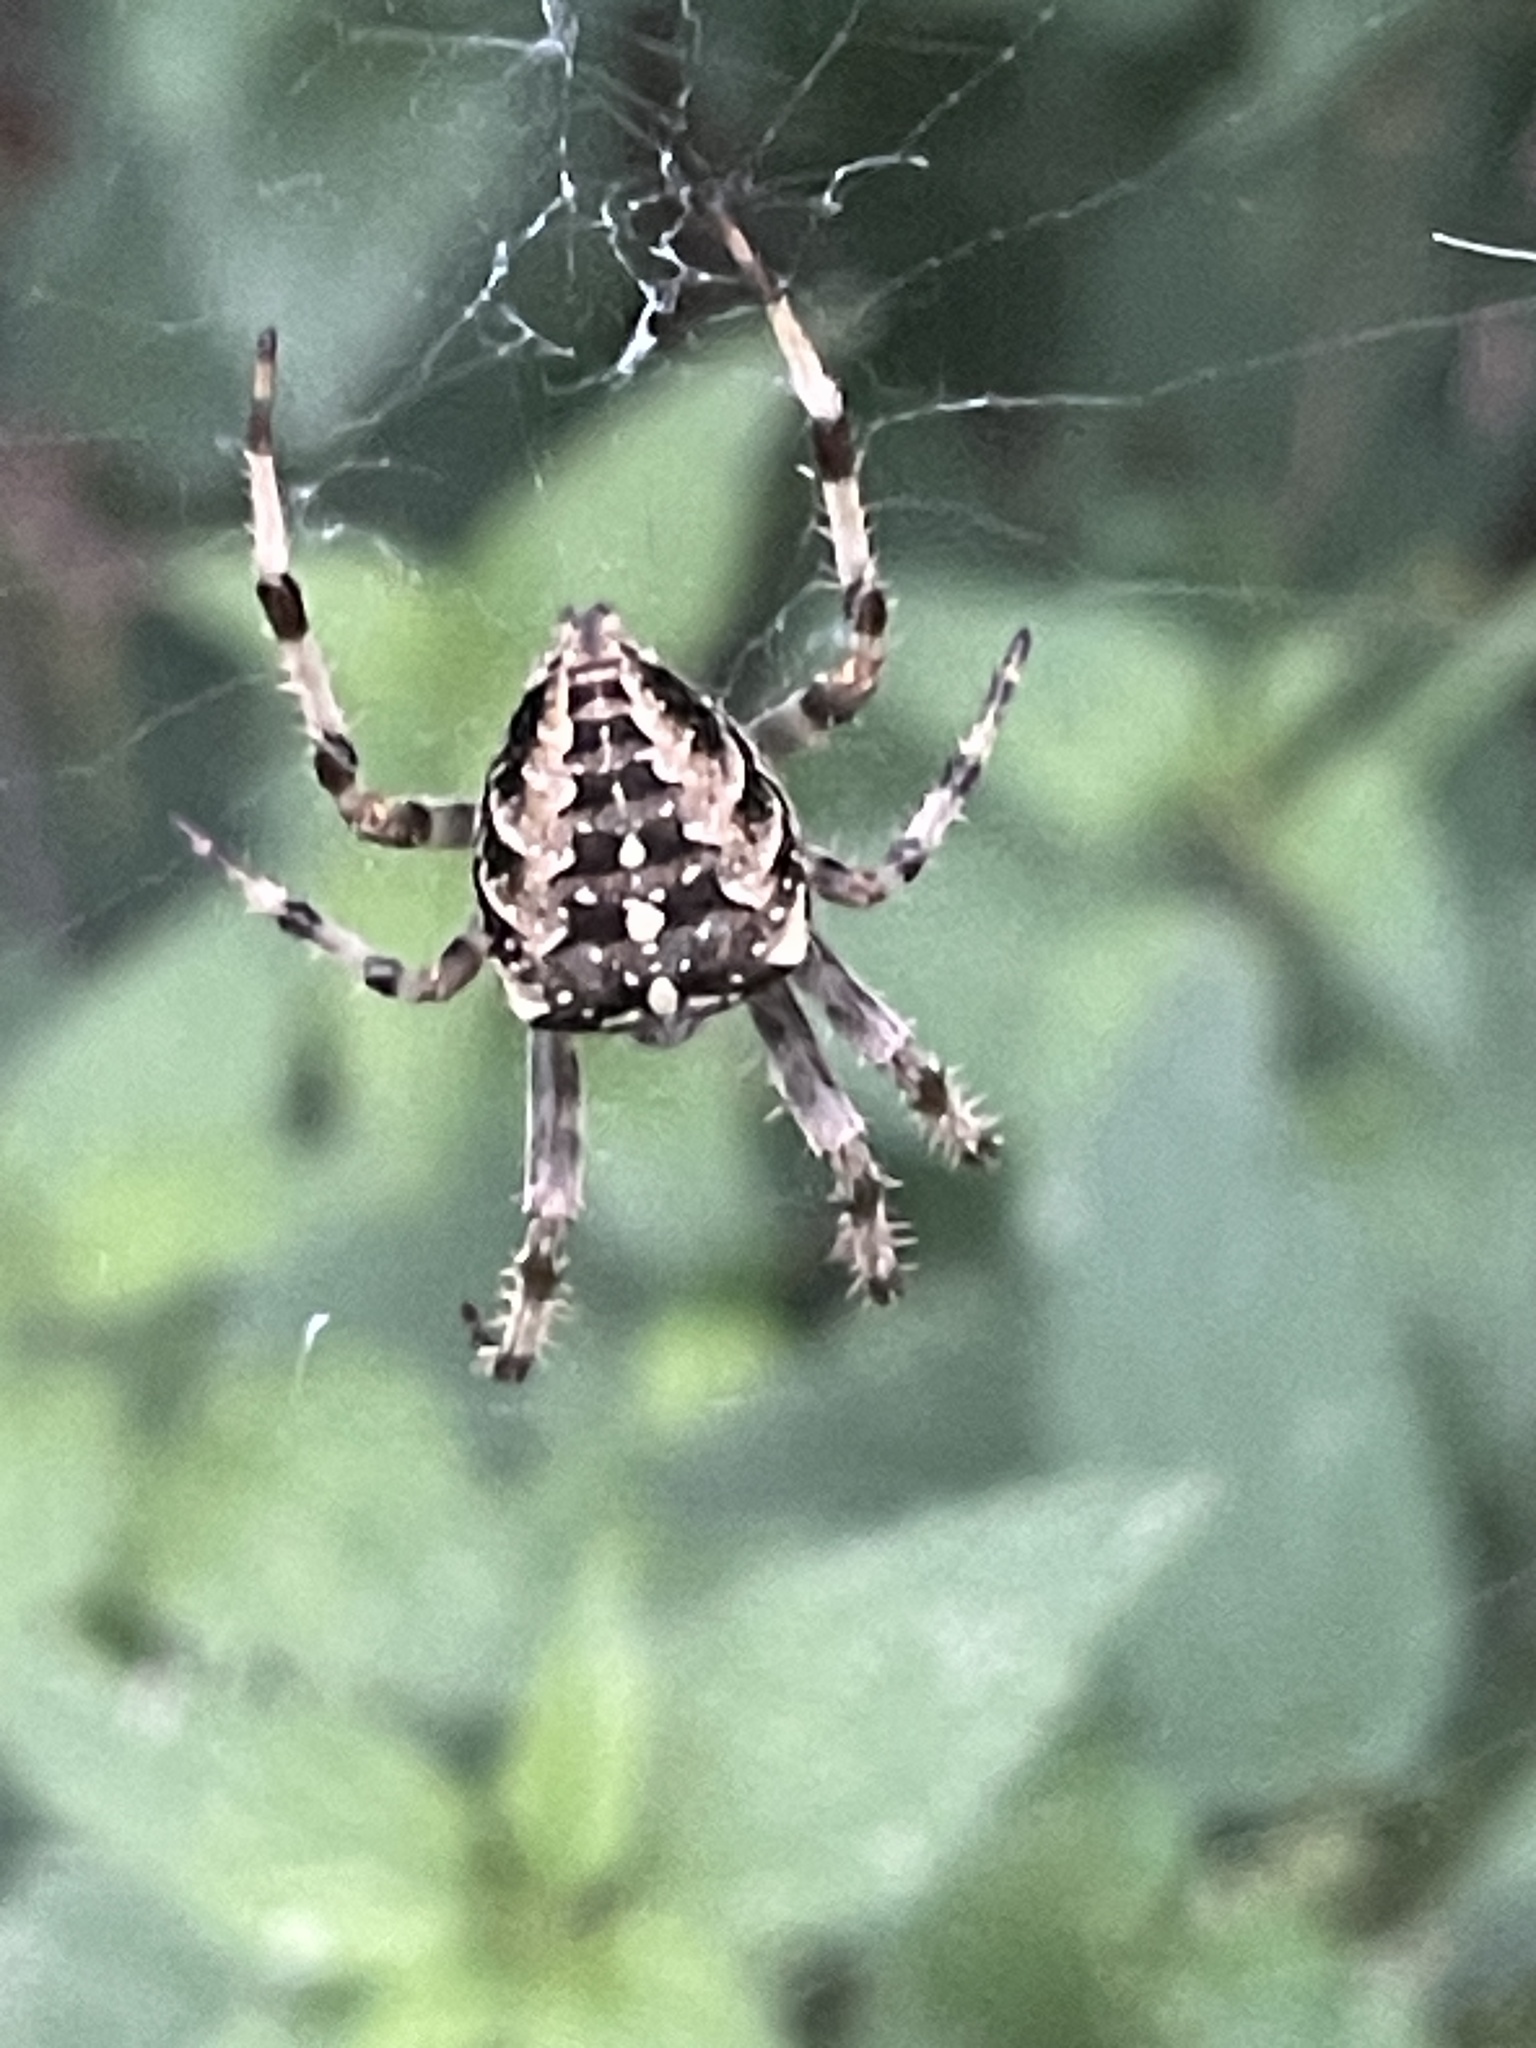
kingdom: Animalia
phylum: Arthropoda
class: Arachnida
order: Araneae
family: Araneidae
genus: Araneus
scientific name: Araneus diadematus
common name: Cross orbweaver
